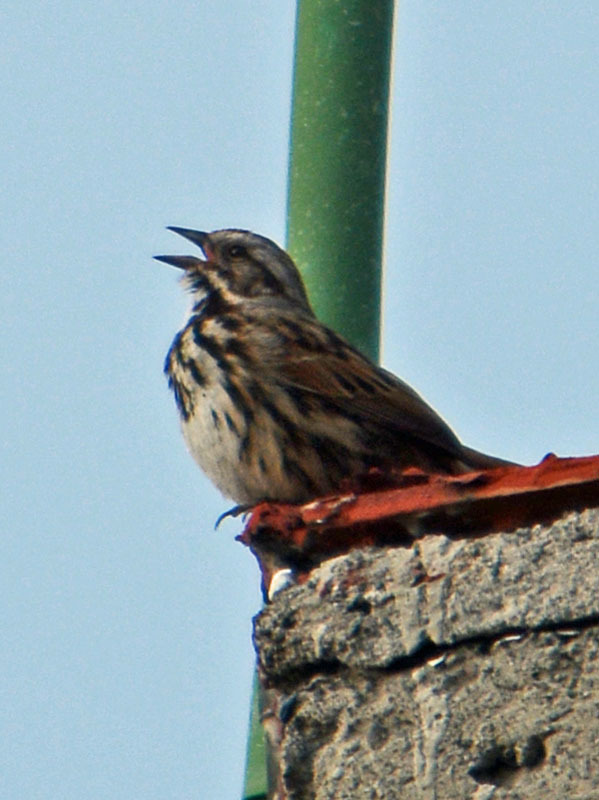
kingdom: Animalia
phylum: Chordata
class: Aves
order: Passeriformes
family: Passerellidae
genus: Melospiza
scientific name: Melospiza melodia
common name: Song sparrow
